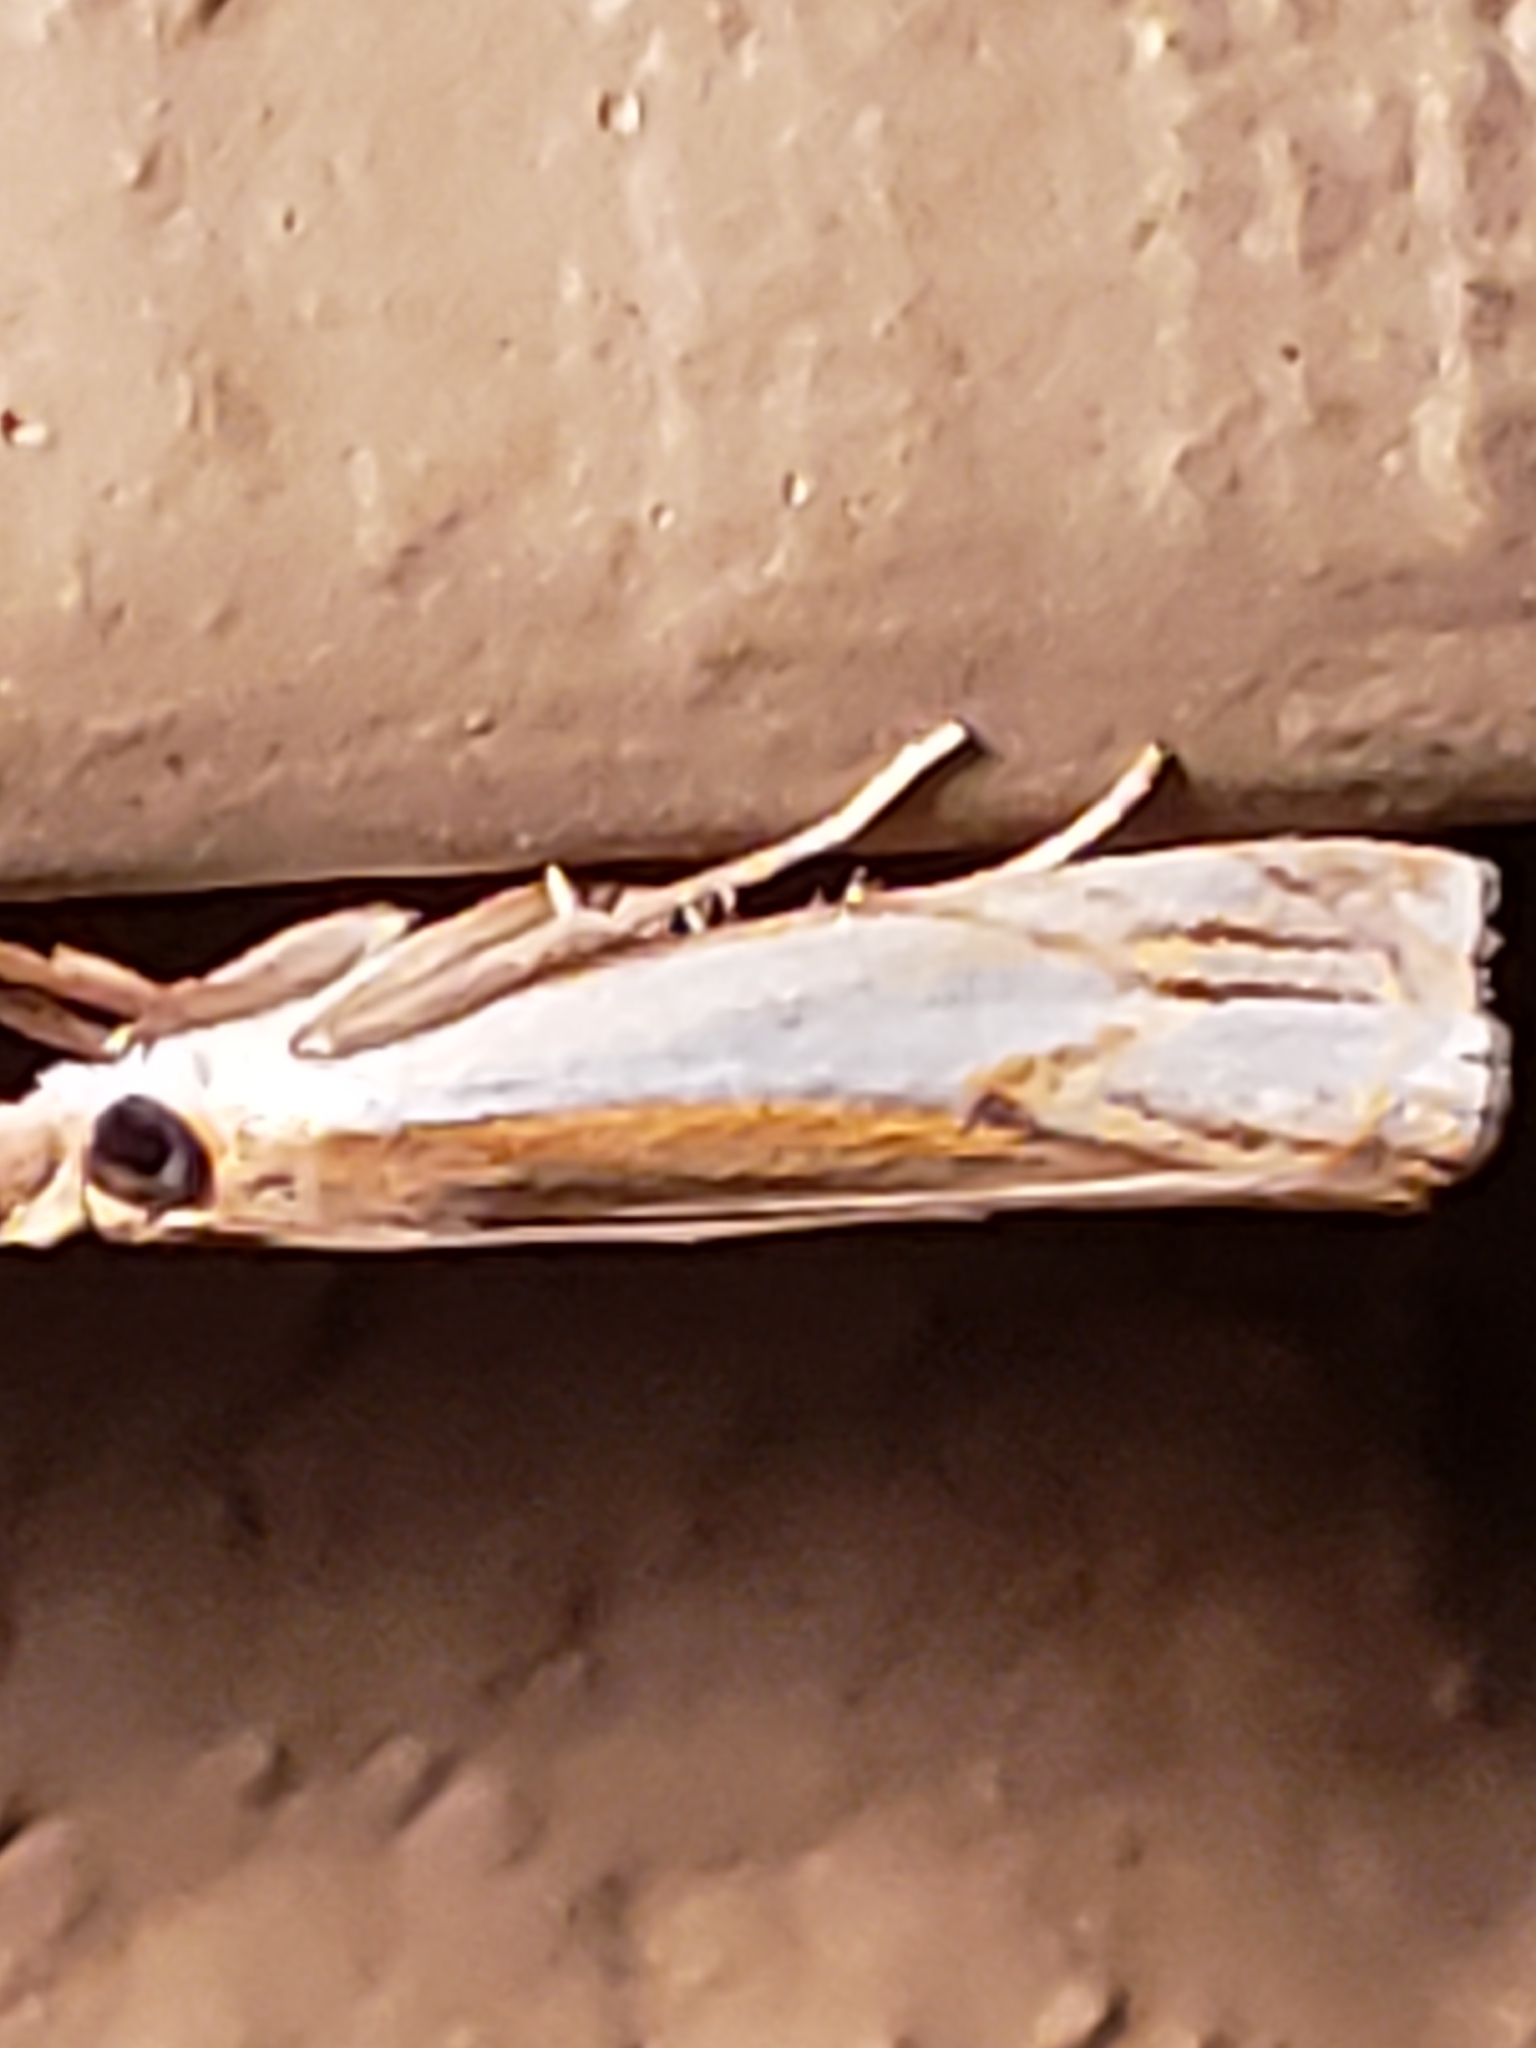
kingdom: Animalia
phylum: Arthropoda
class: Insecta
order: Lepidoptera
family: Crambidae
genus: Crambus
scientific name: Crambus agitatellus
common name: Double-banded grass-veneer
